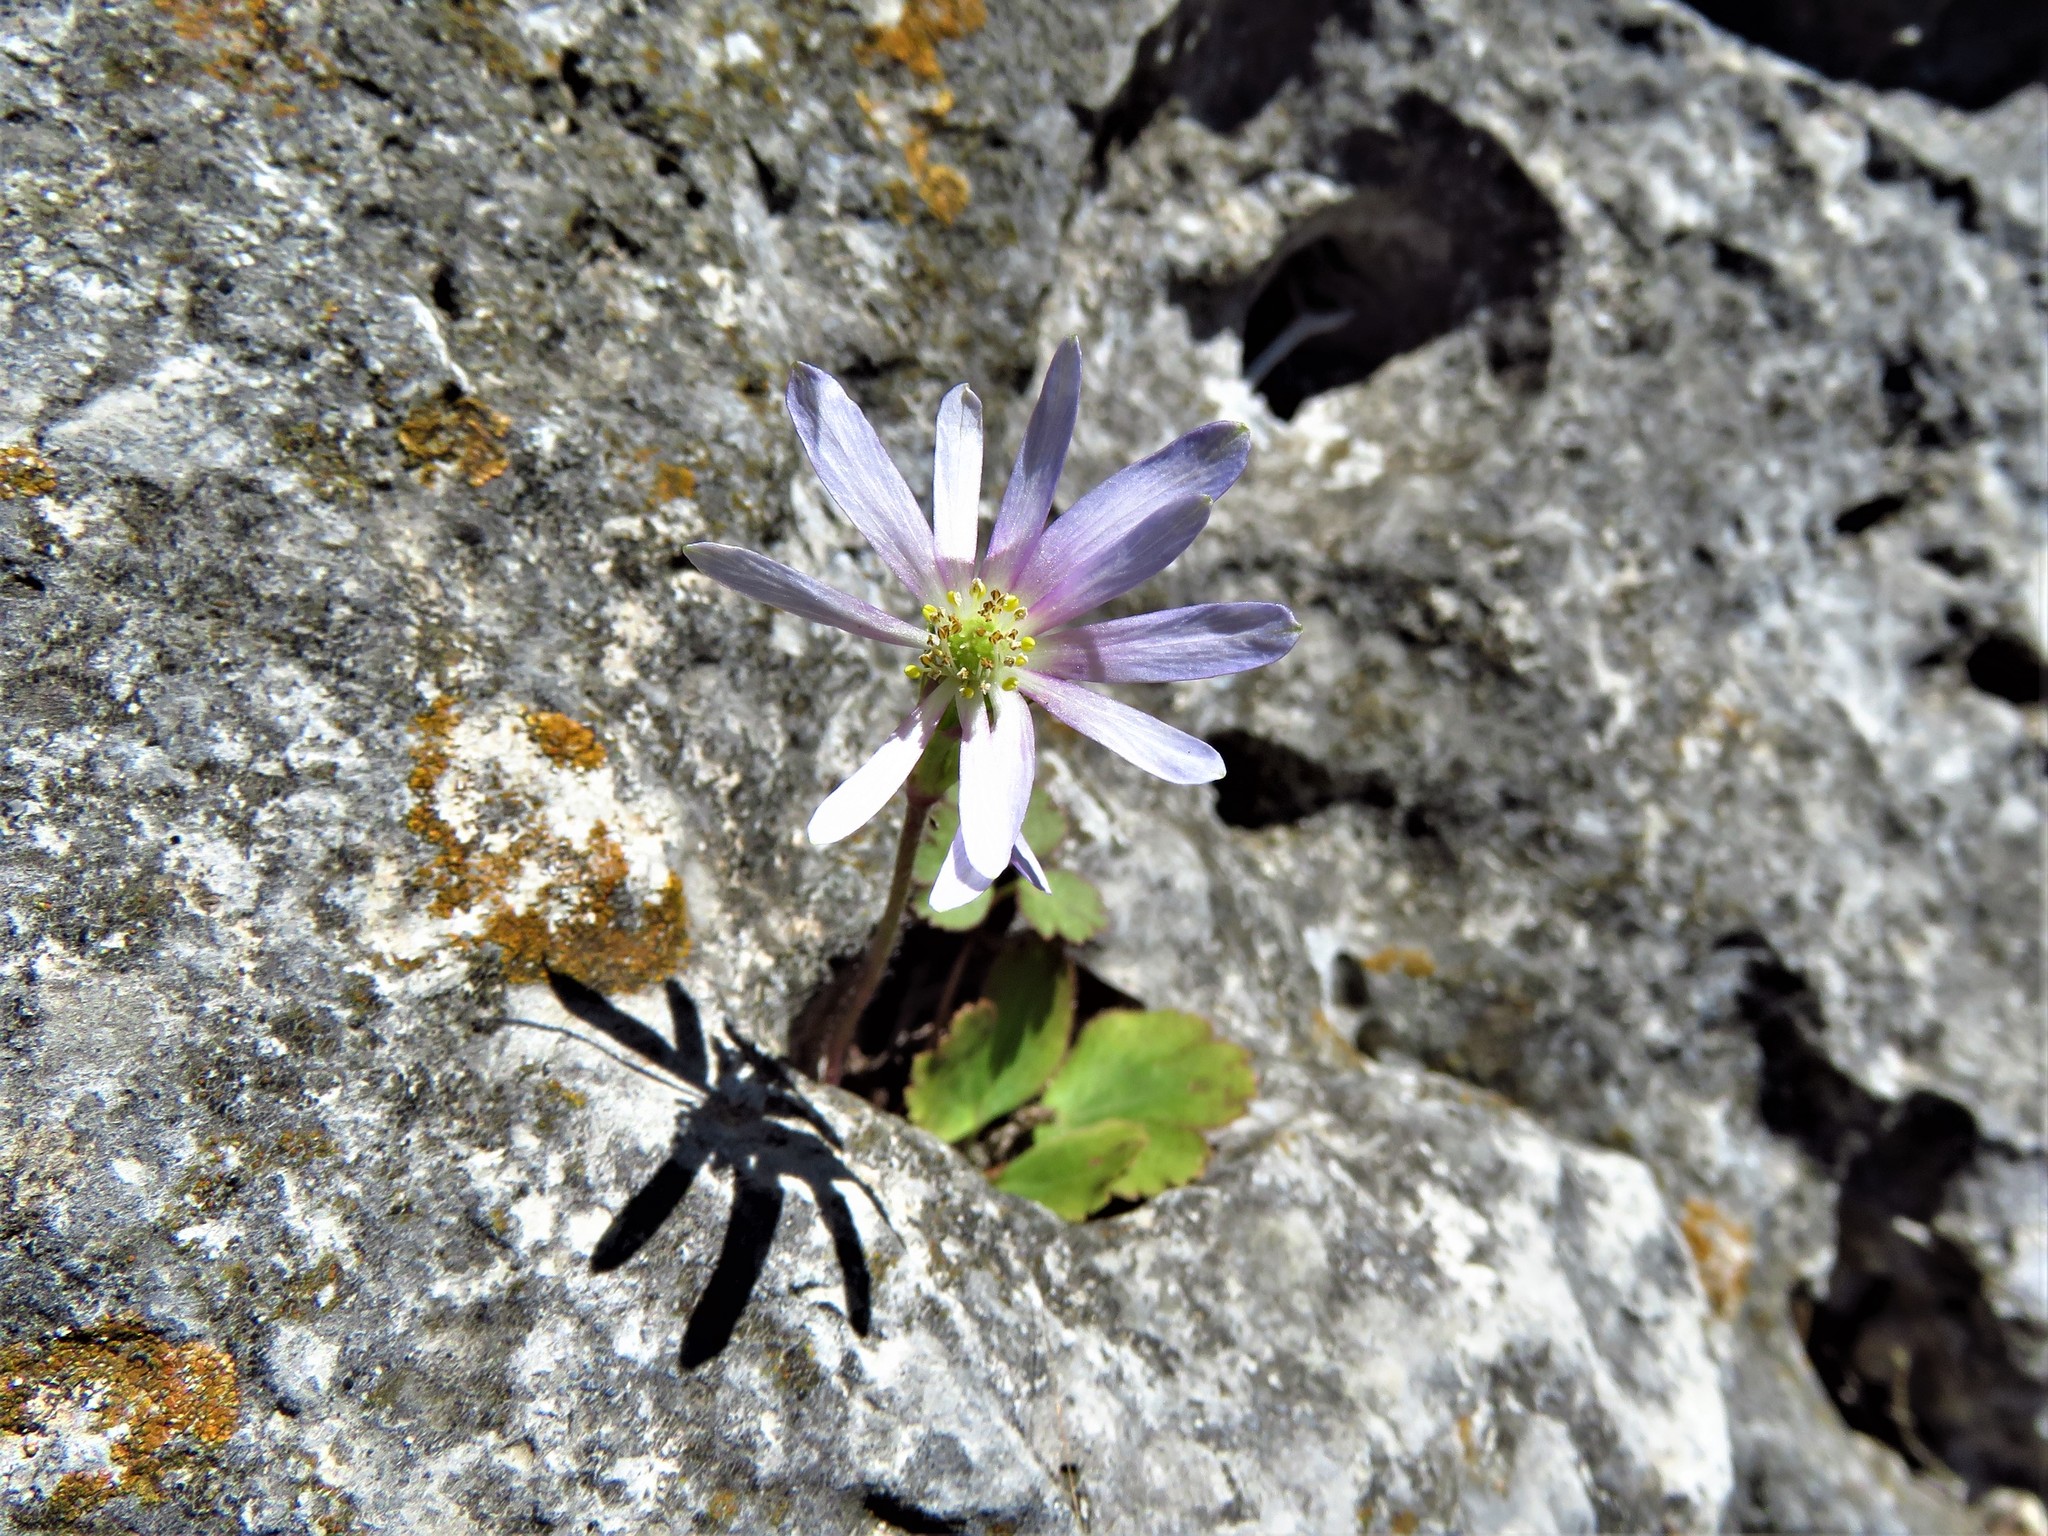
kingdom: Plantae
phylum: Tracheophyta
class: Magnoliopsida
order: Ranunculales
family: Ranunculaceae
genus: Anemone
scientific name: Anemone berlandieri
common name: Ten-petal anemone
